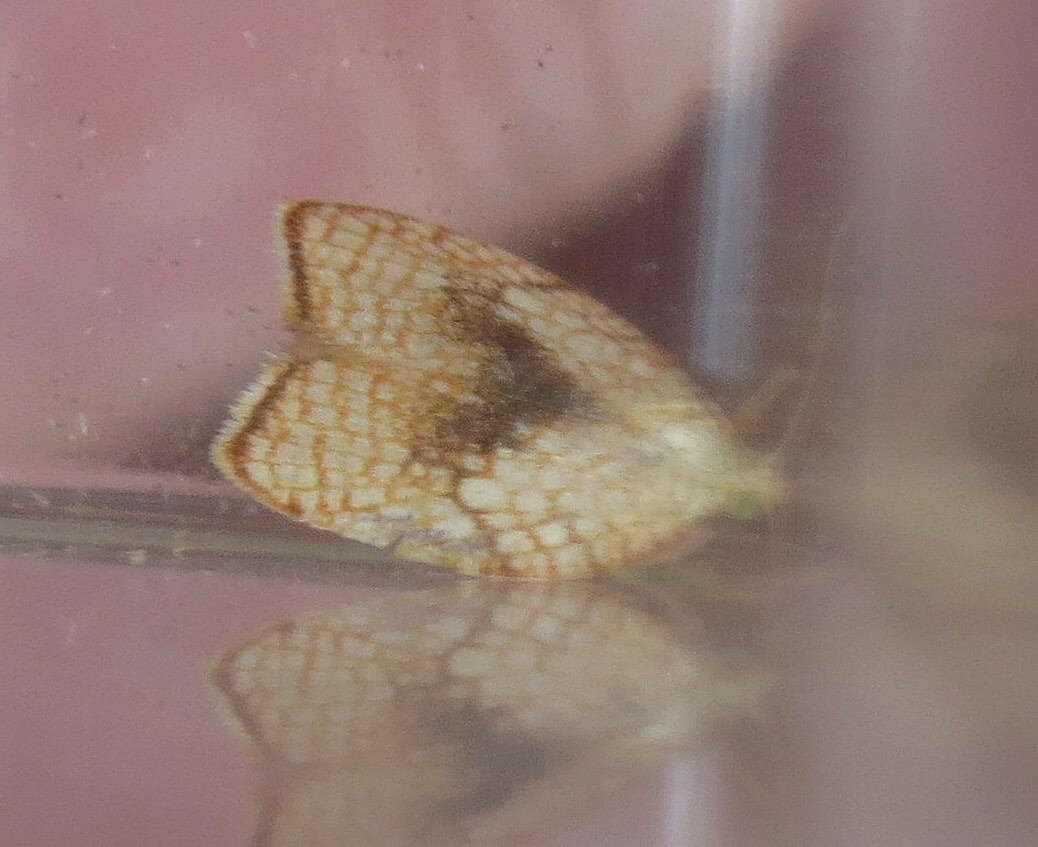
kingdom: Animalia
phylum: Arthropoda
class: Insecta
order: Lepidoptera
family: Tortricidae
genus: Acleris
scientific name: Acleris forsskaleana
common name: Maple button
